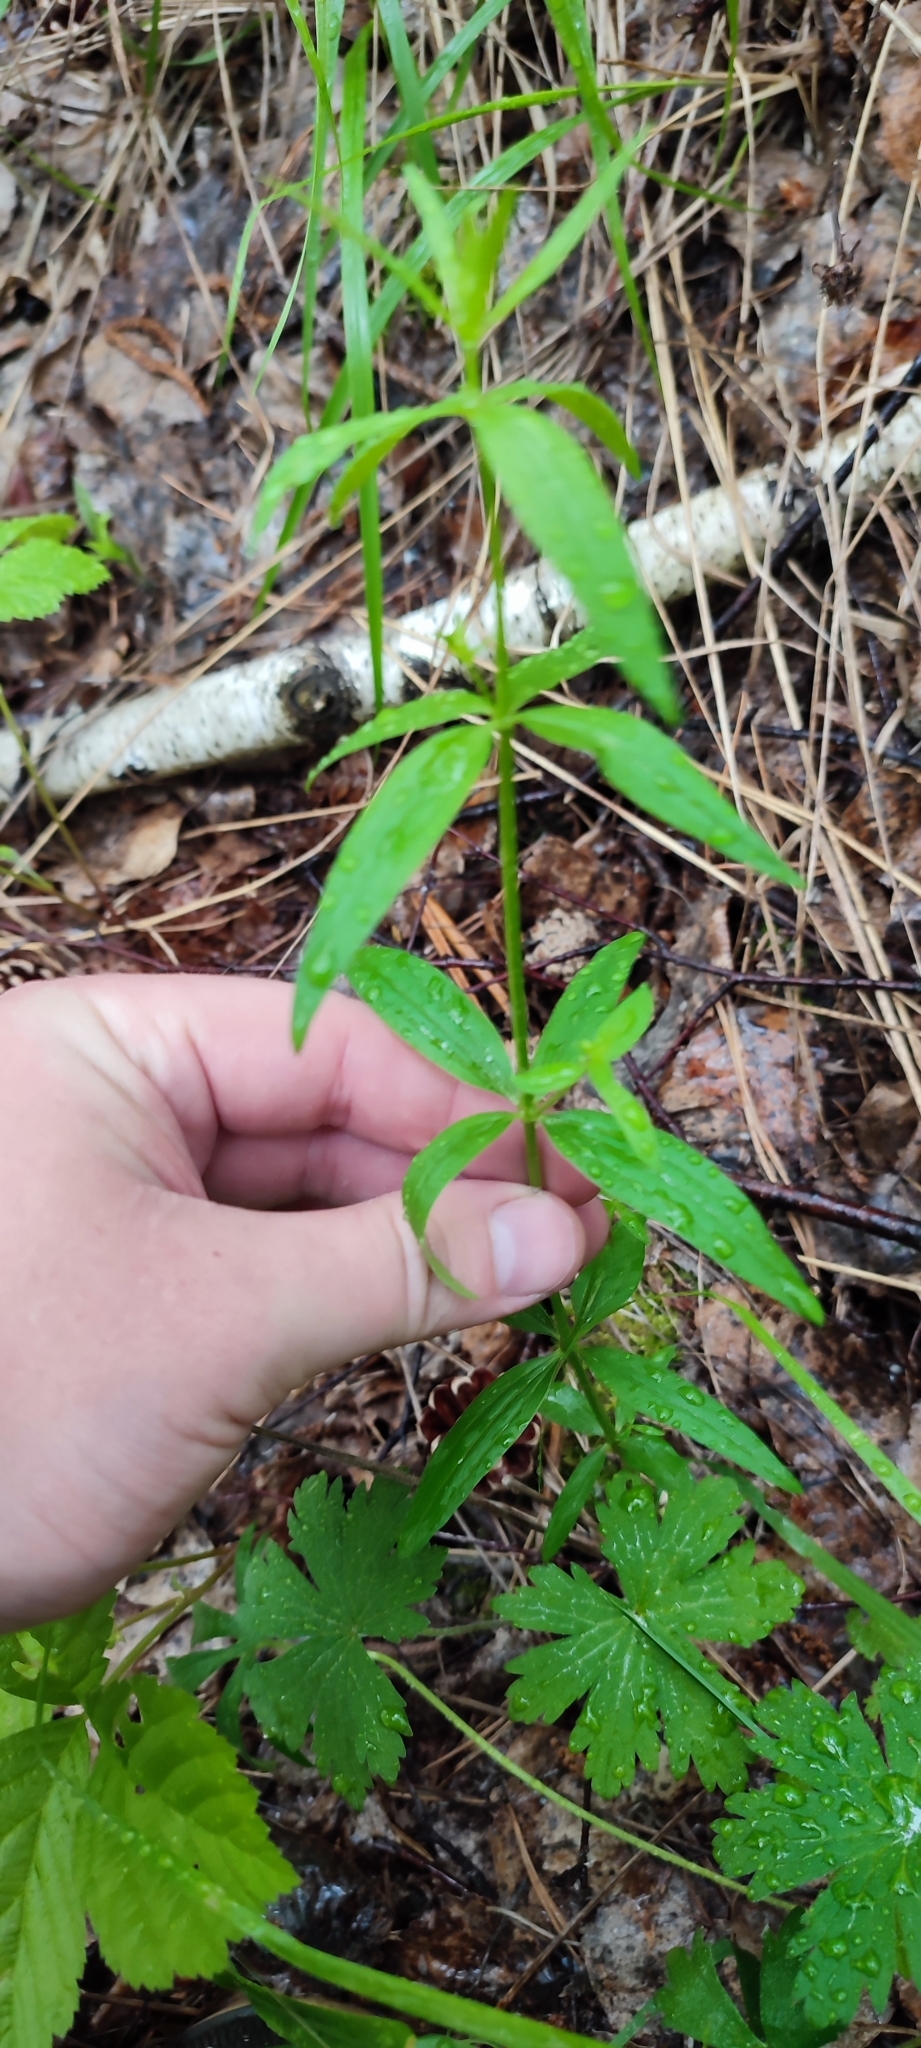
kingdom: Plantae
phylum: Tracheophyta
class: Magnoliopsida
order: Gentianales
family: Rubiaceae
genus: Galium
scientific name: Galium boreale
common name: Northern bedstraw
